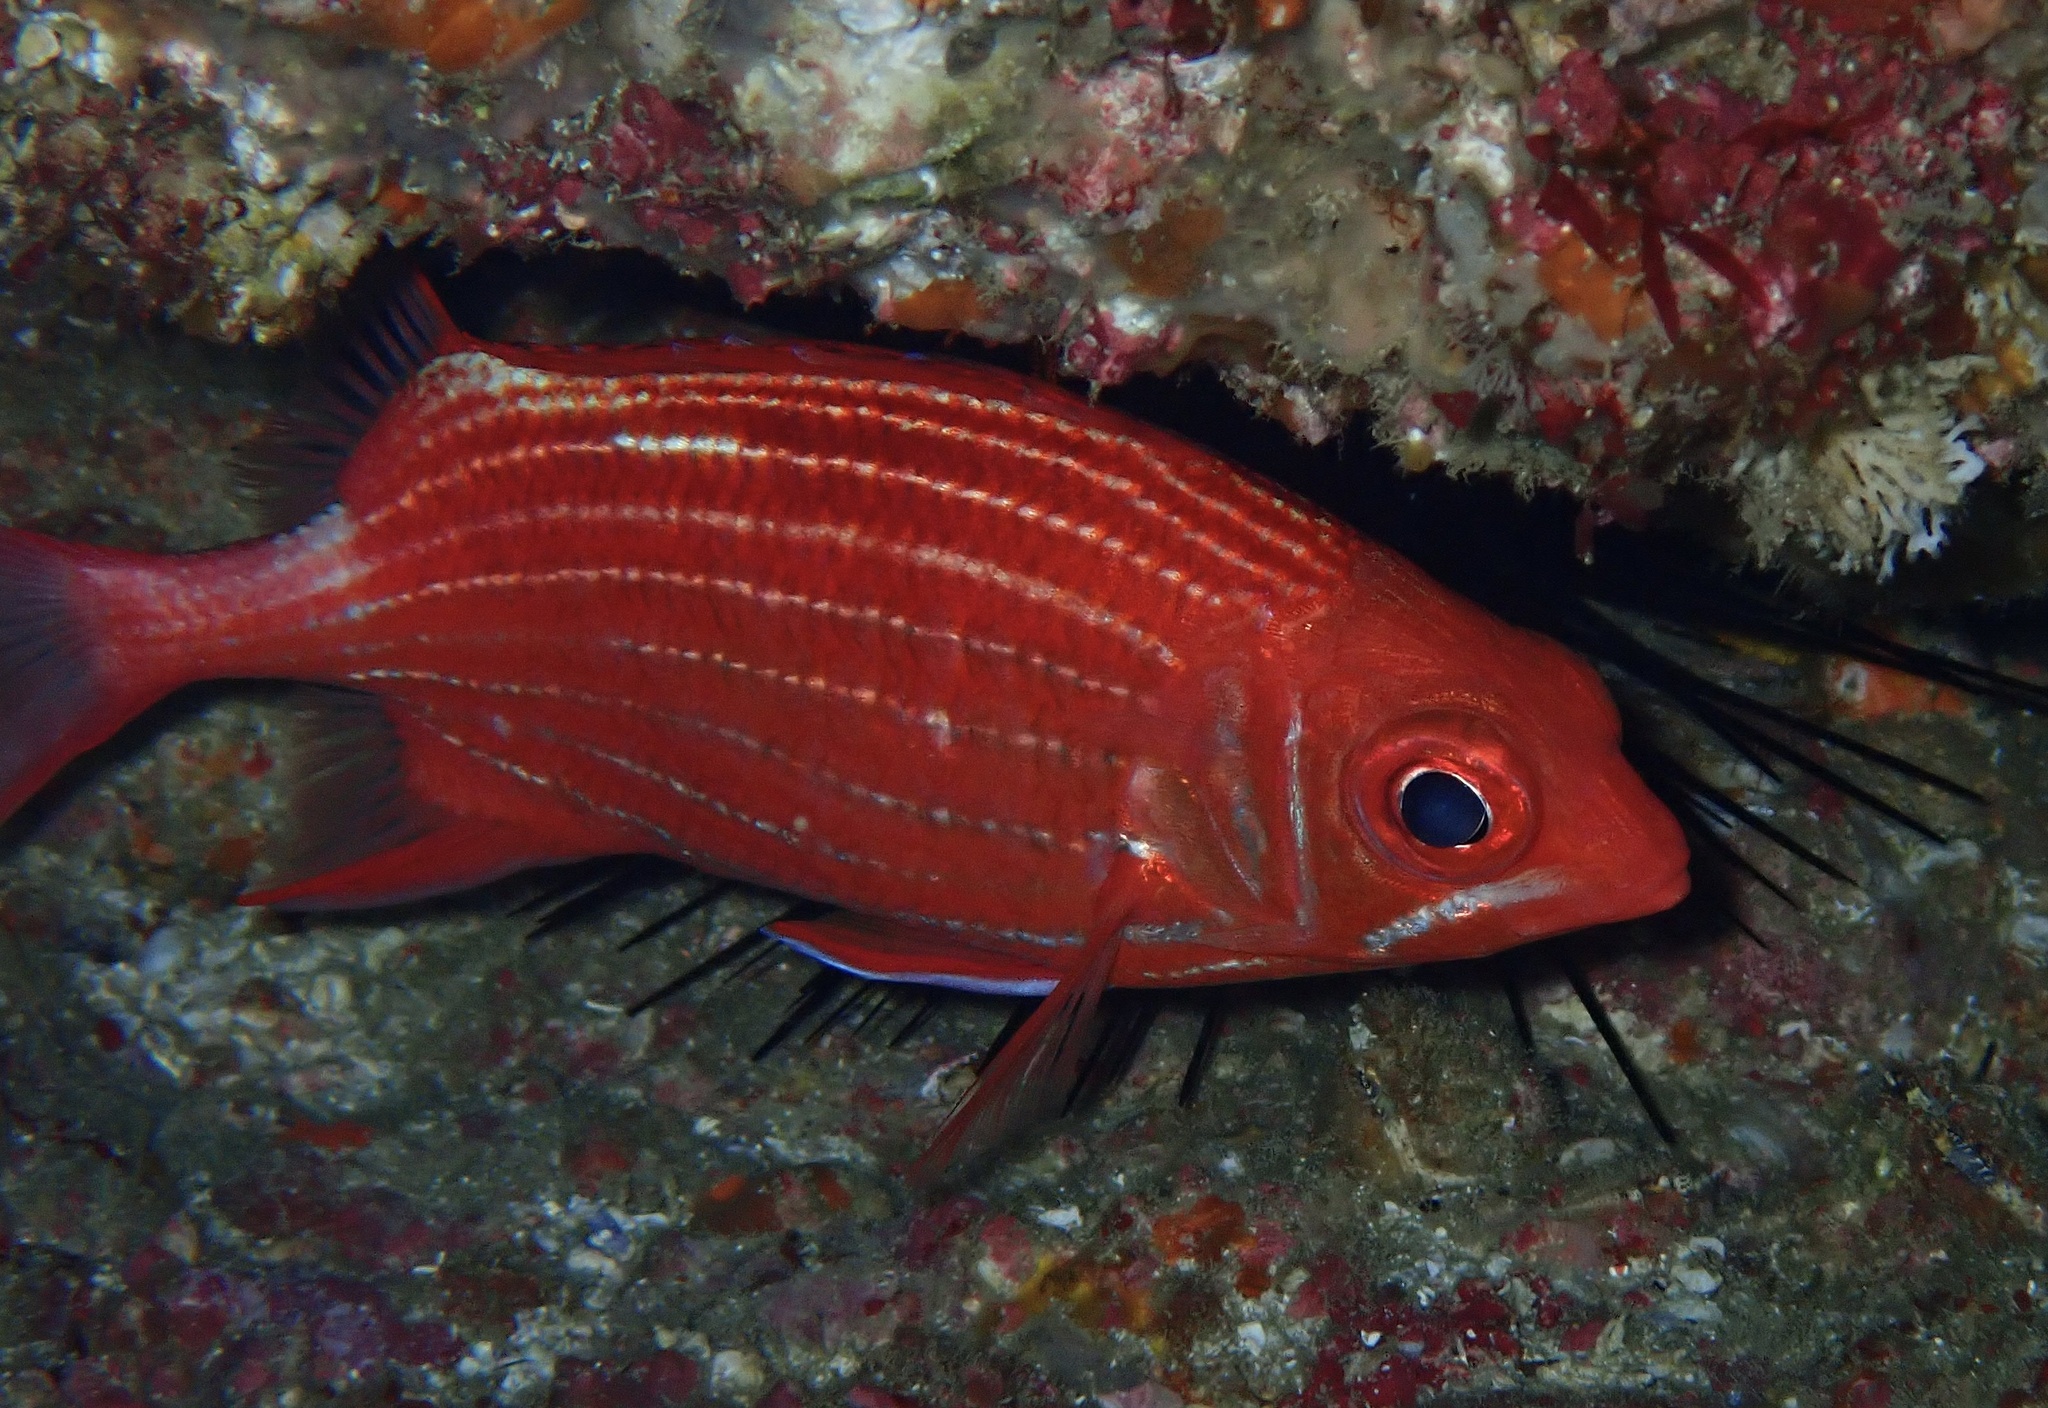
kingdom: Animalia
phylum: Chordata
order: Beryciformes
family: Holocentridae
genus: Sargocentron
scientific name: Sargocentron ittodai
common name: Samurai squirrelfish
